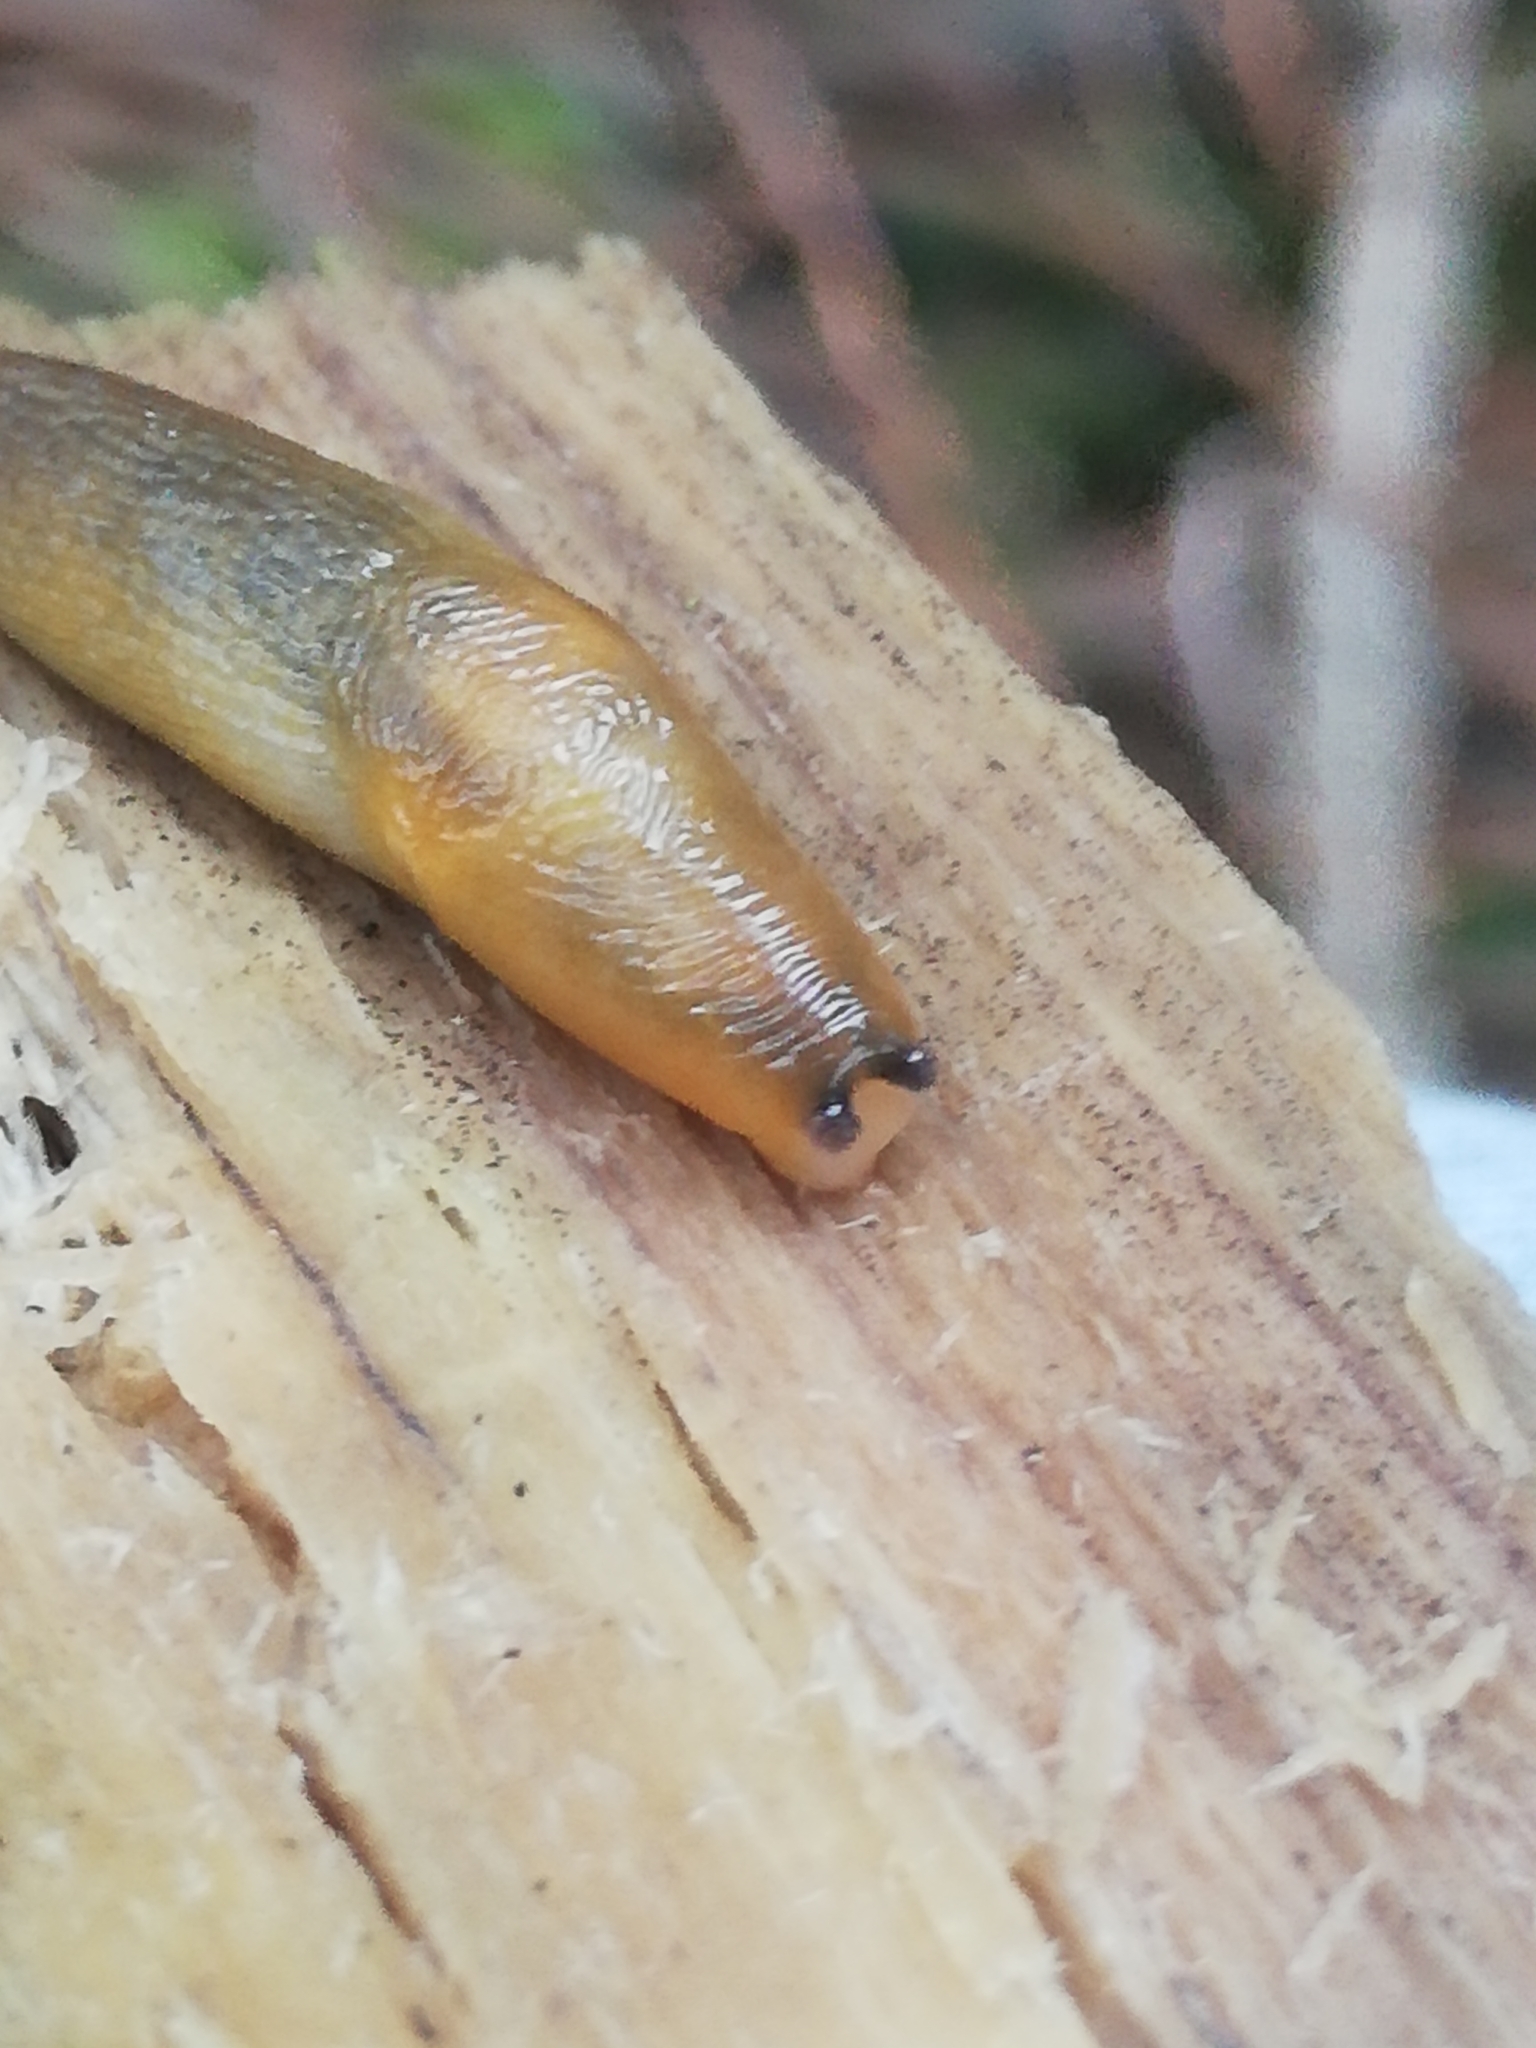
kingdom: Animalia
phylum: Mollusca
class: Gastropoda
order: Stylommatophora
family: Limacidae
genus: Malacolimax
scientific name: Malacolimax tenellus
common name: Lemon slug
